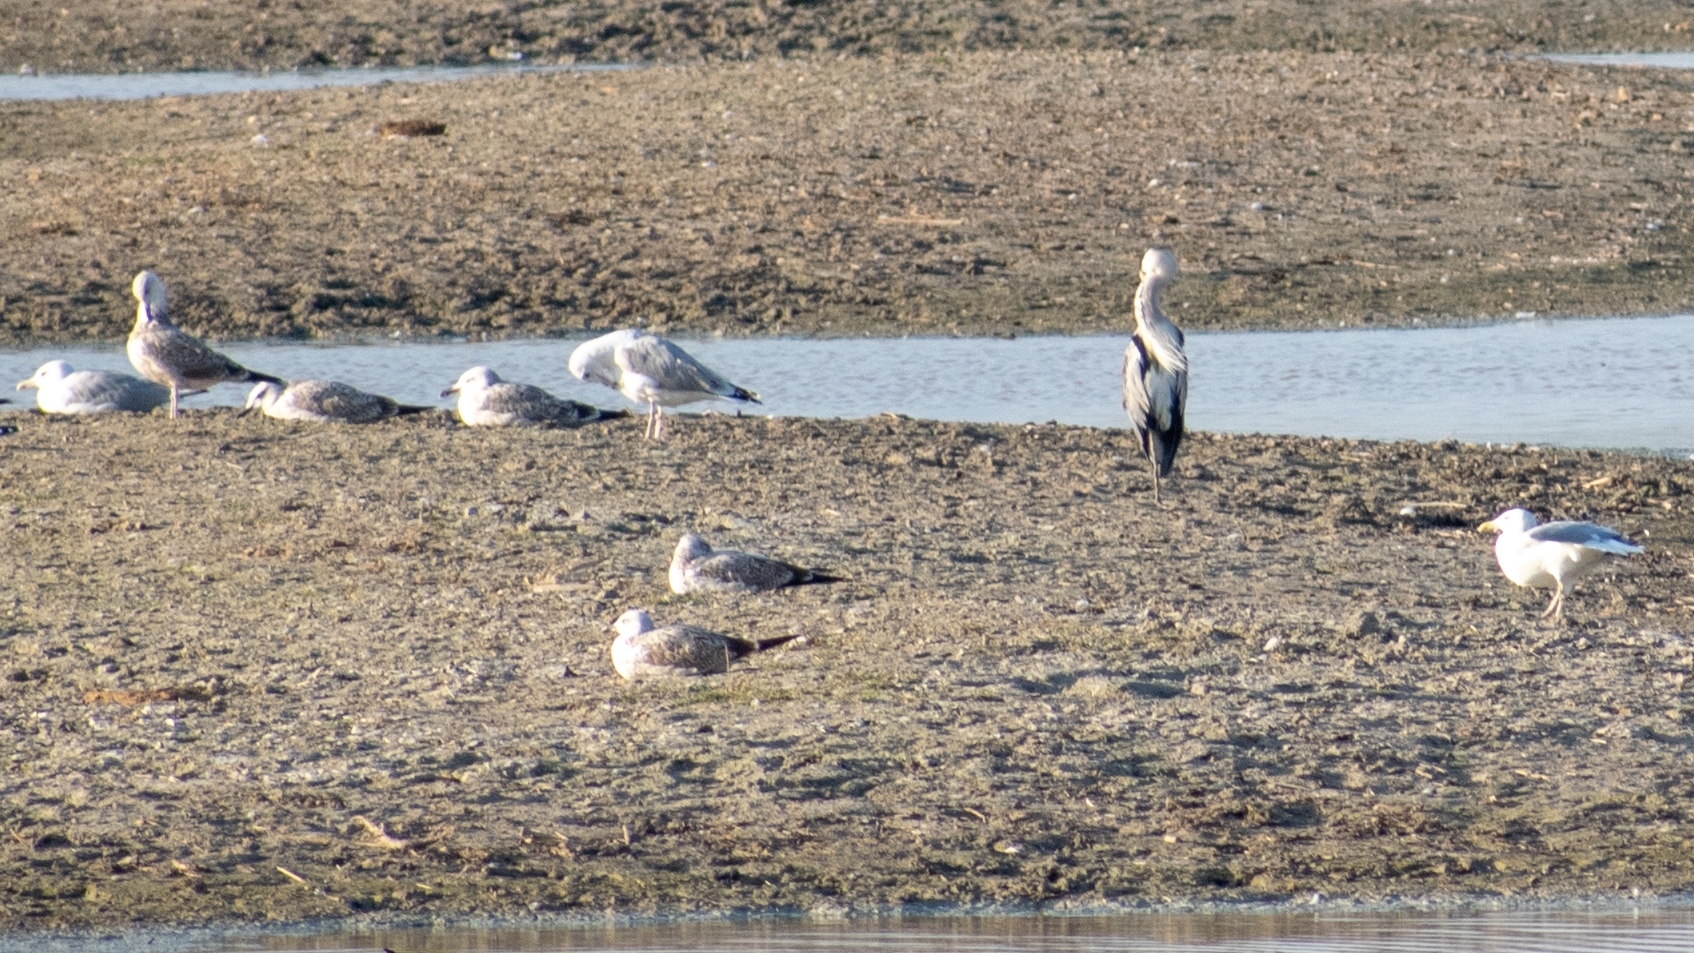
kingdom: Animalia
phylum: Chordata
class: Aves
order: Pelecaniformes
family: Ardeidae
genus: Ardea
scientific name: Ardea cinerea
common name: Grey heron
